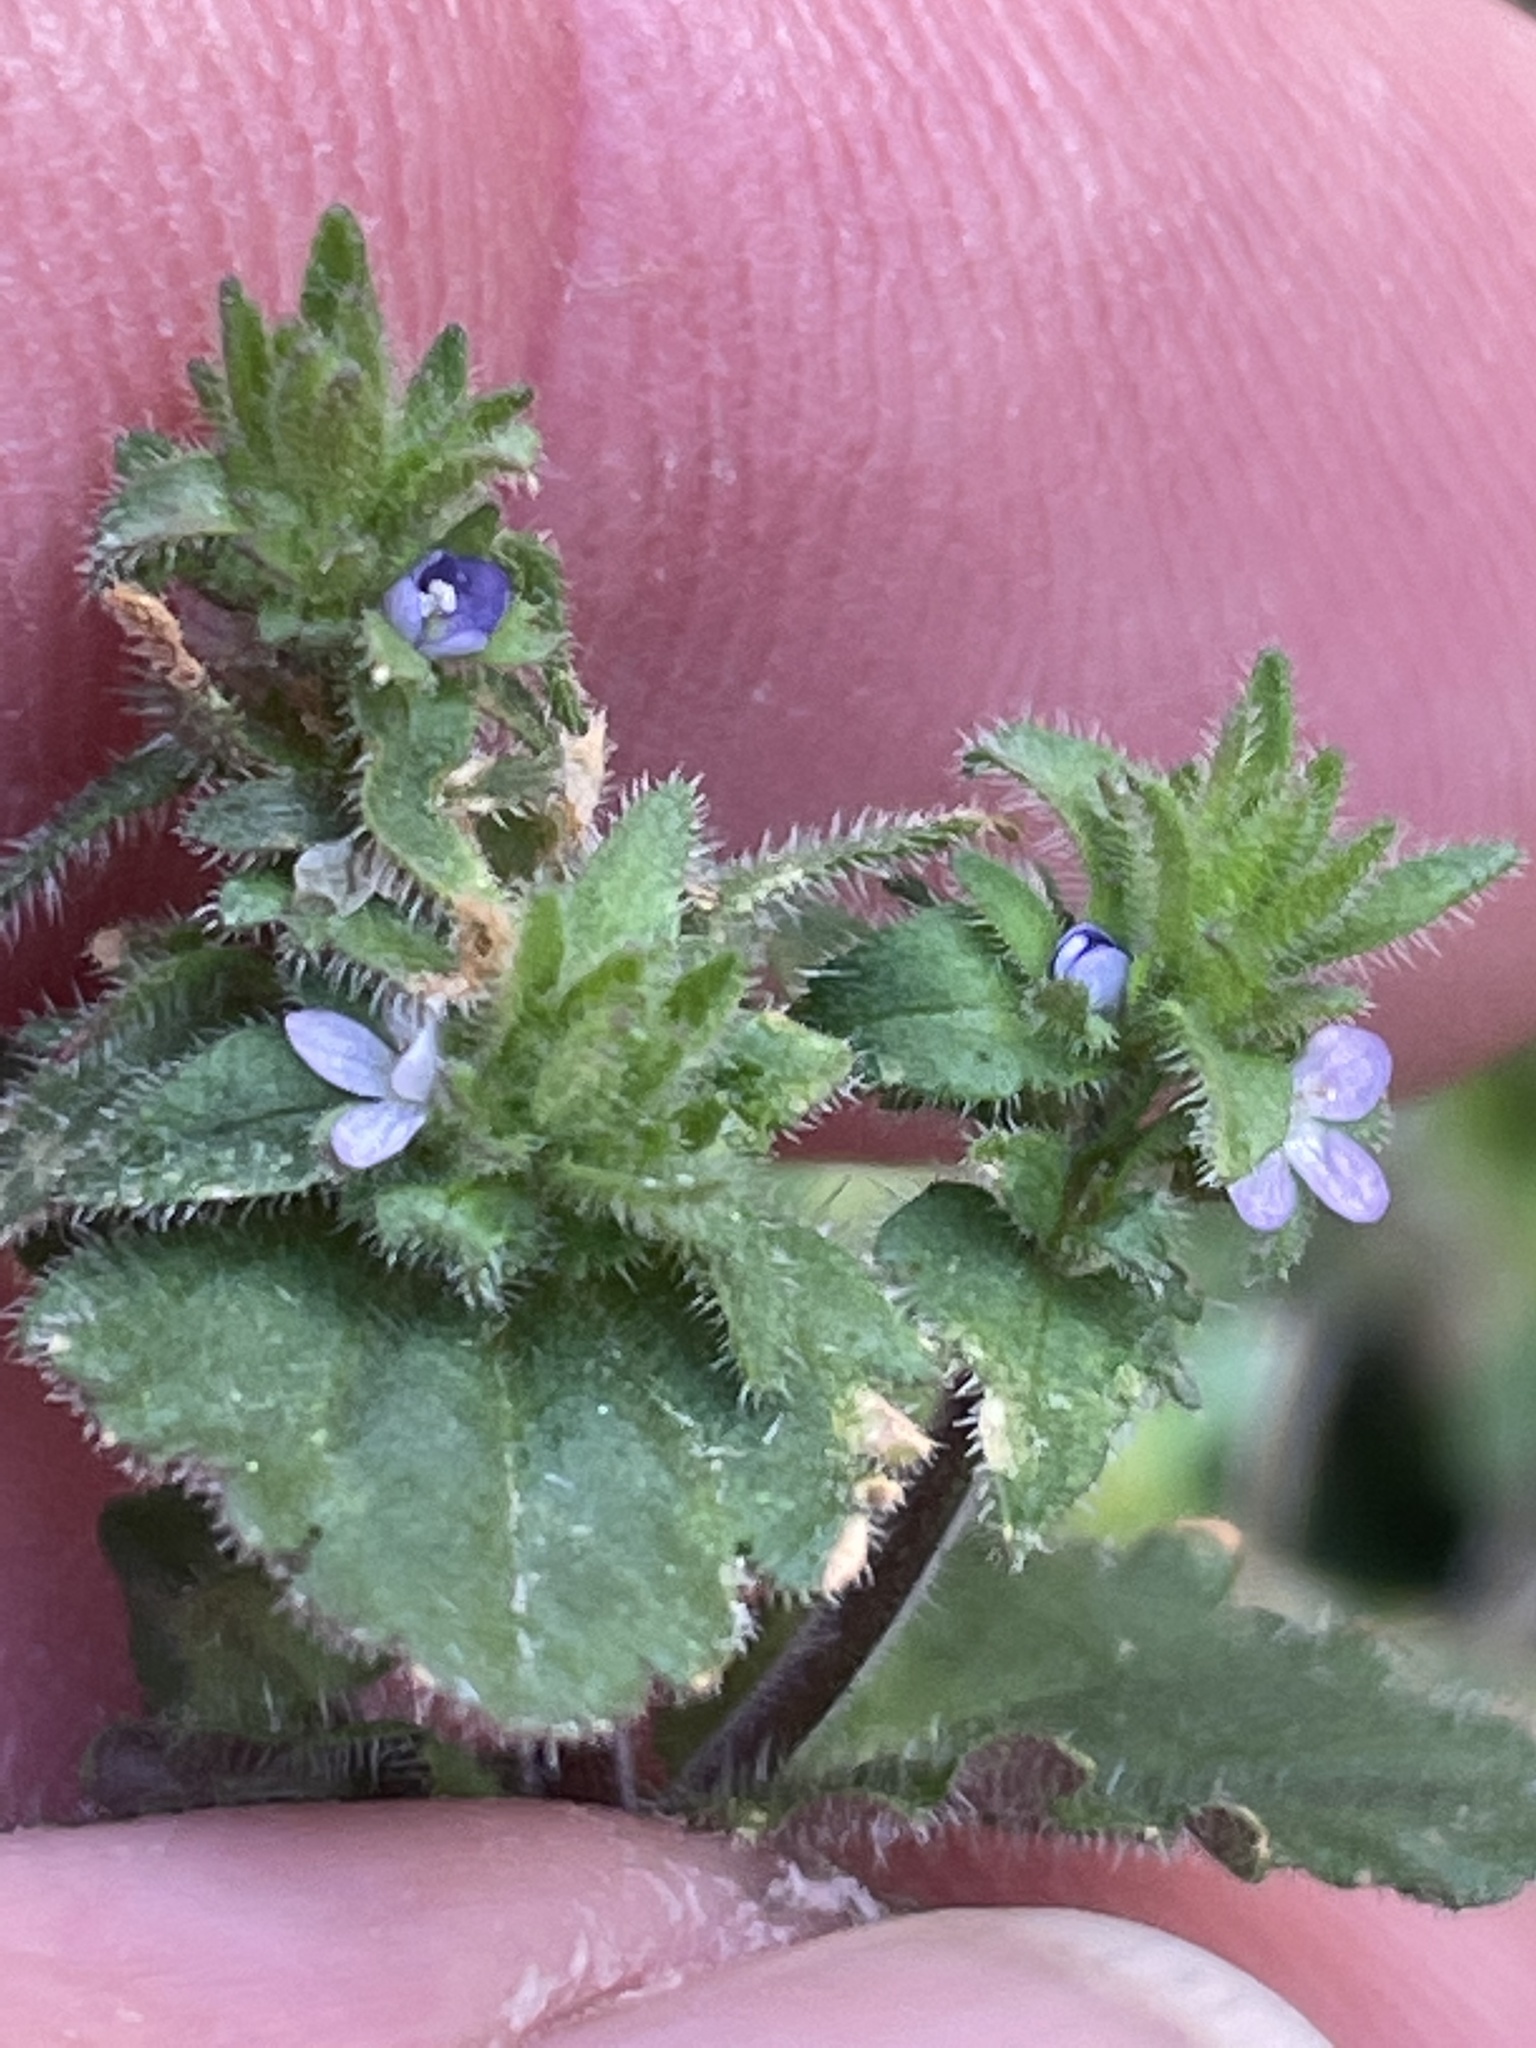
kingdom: Plantae
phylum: Tracheophyta
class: Magnoliopsida
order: Lamiales
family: Plantaginaceae
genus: Veronica
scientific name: Veronica arvensis
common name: Corn speedwell
